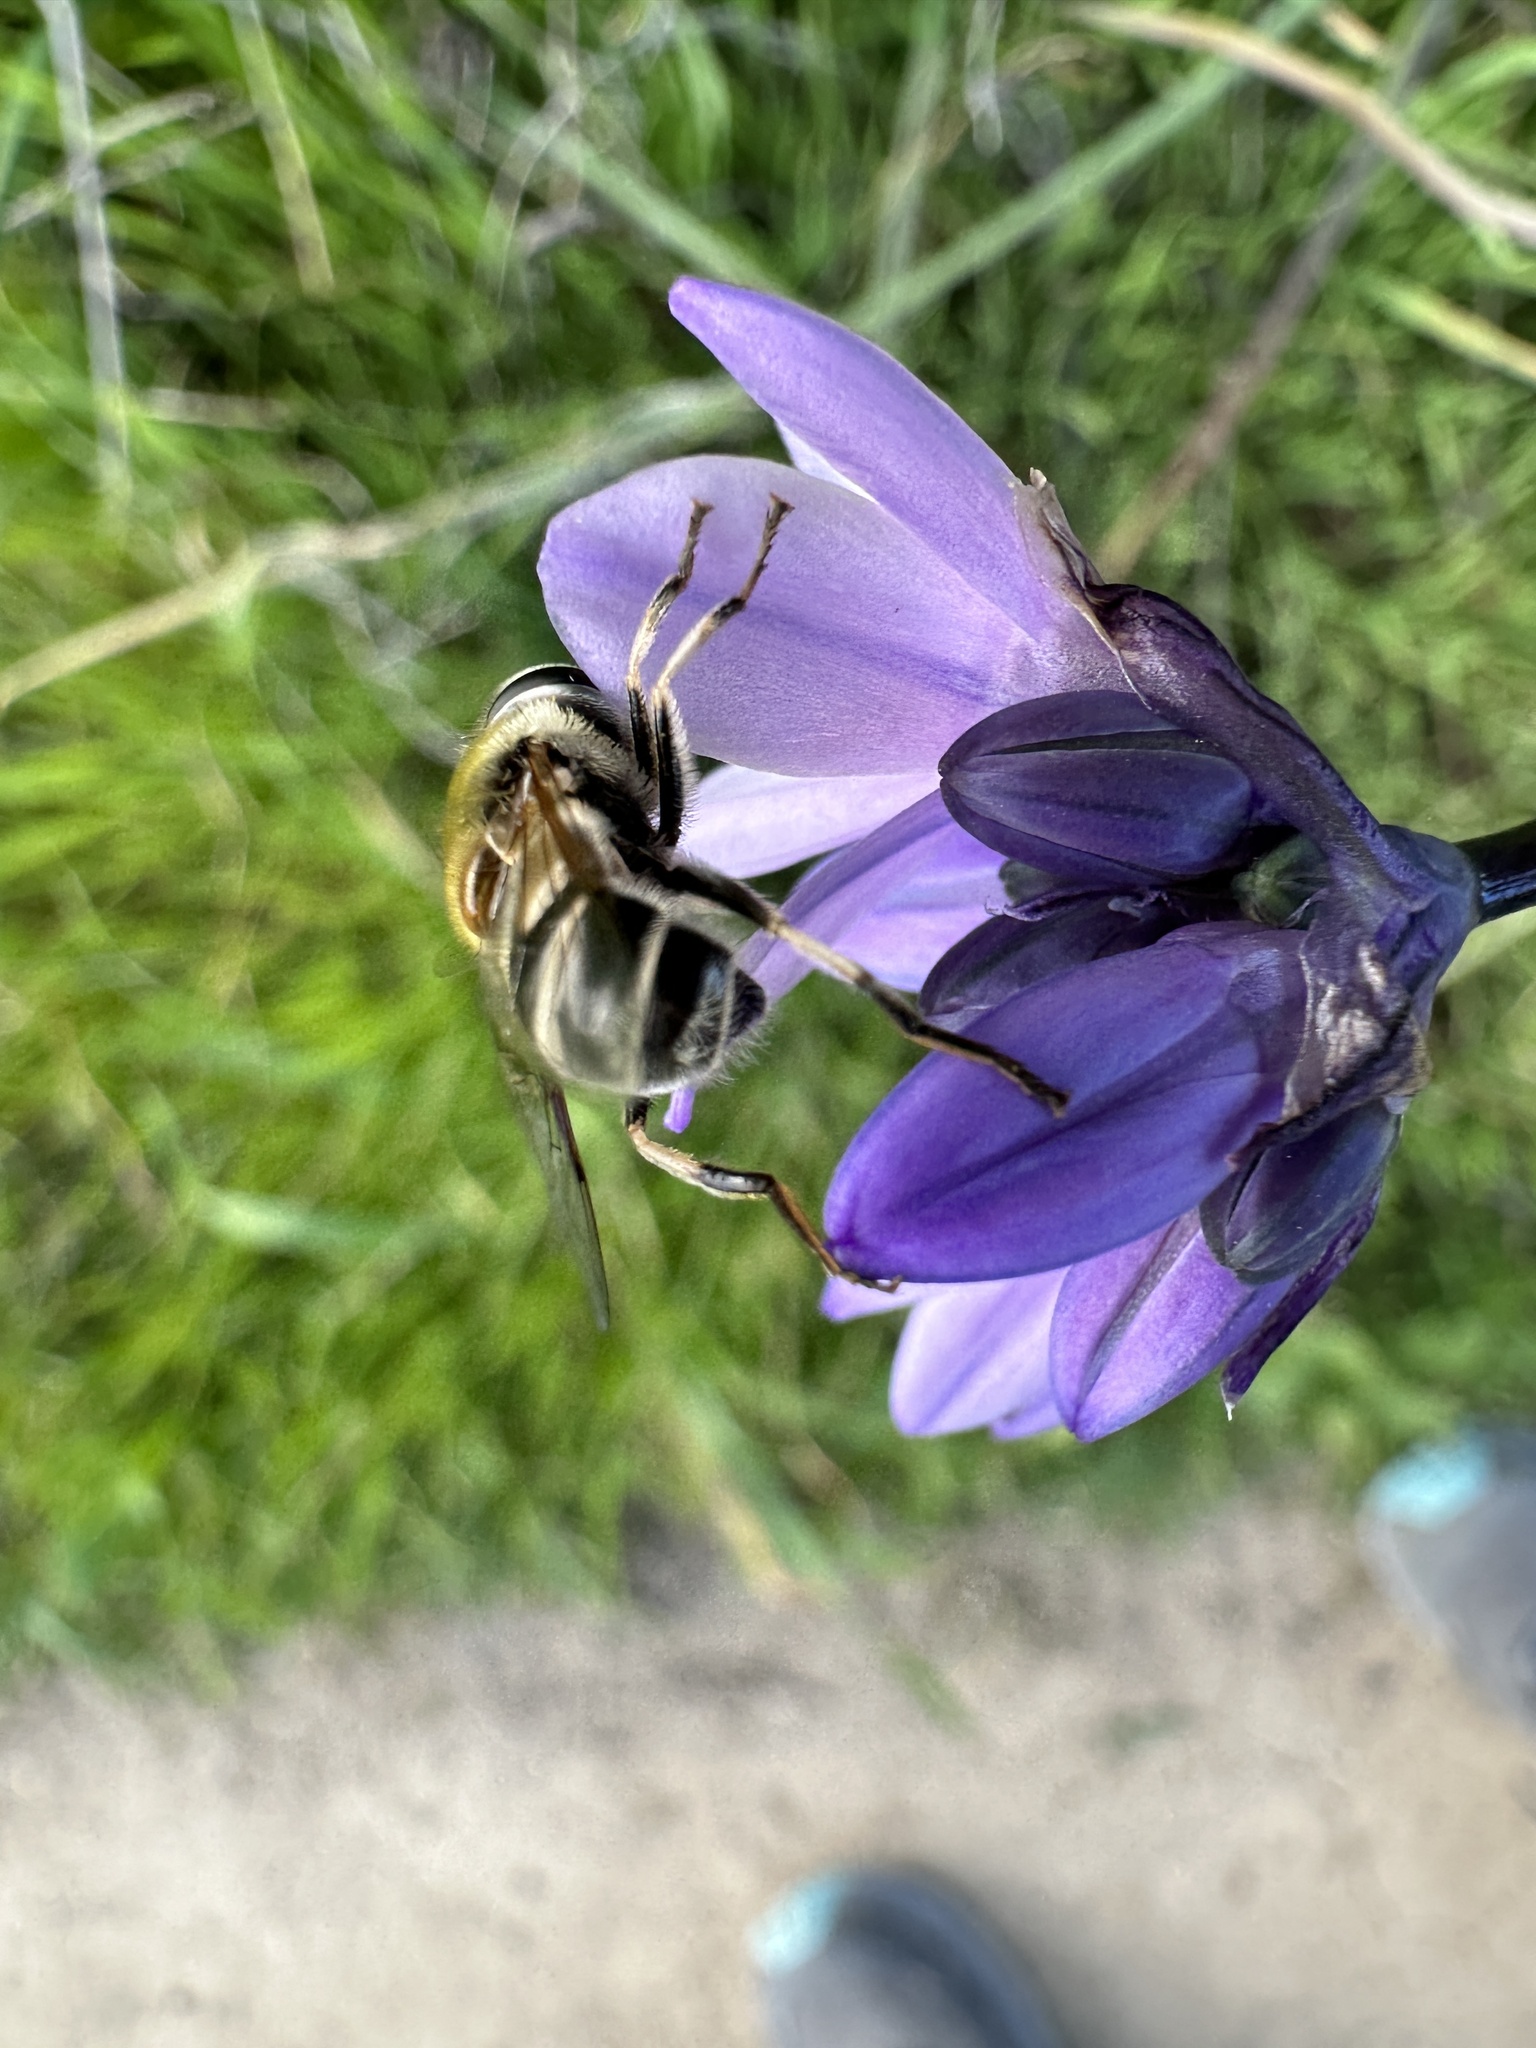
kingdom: Animalia
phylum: Arthropoda
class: Insecta
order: Diptera
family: Syrphidae
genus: Eristalis
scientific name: Eristalis stipator
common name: Yellow-shouldered drone fly
